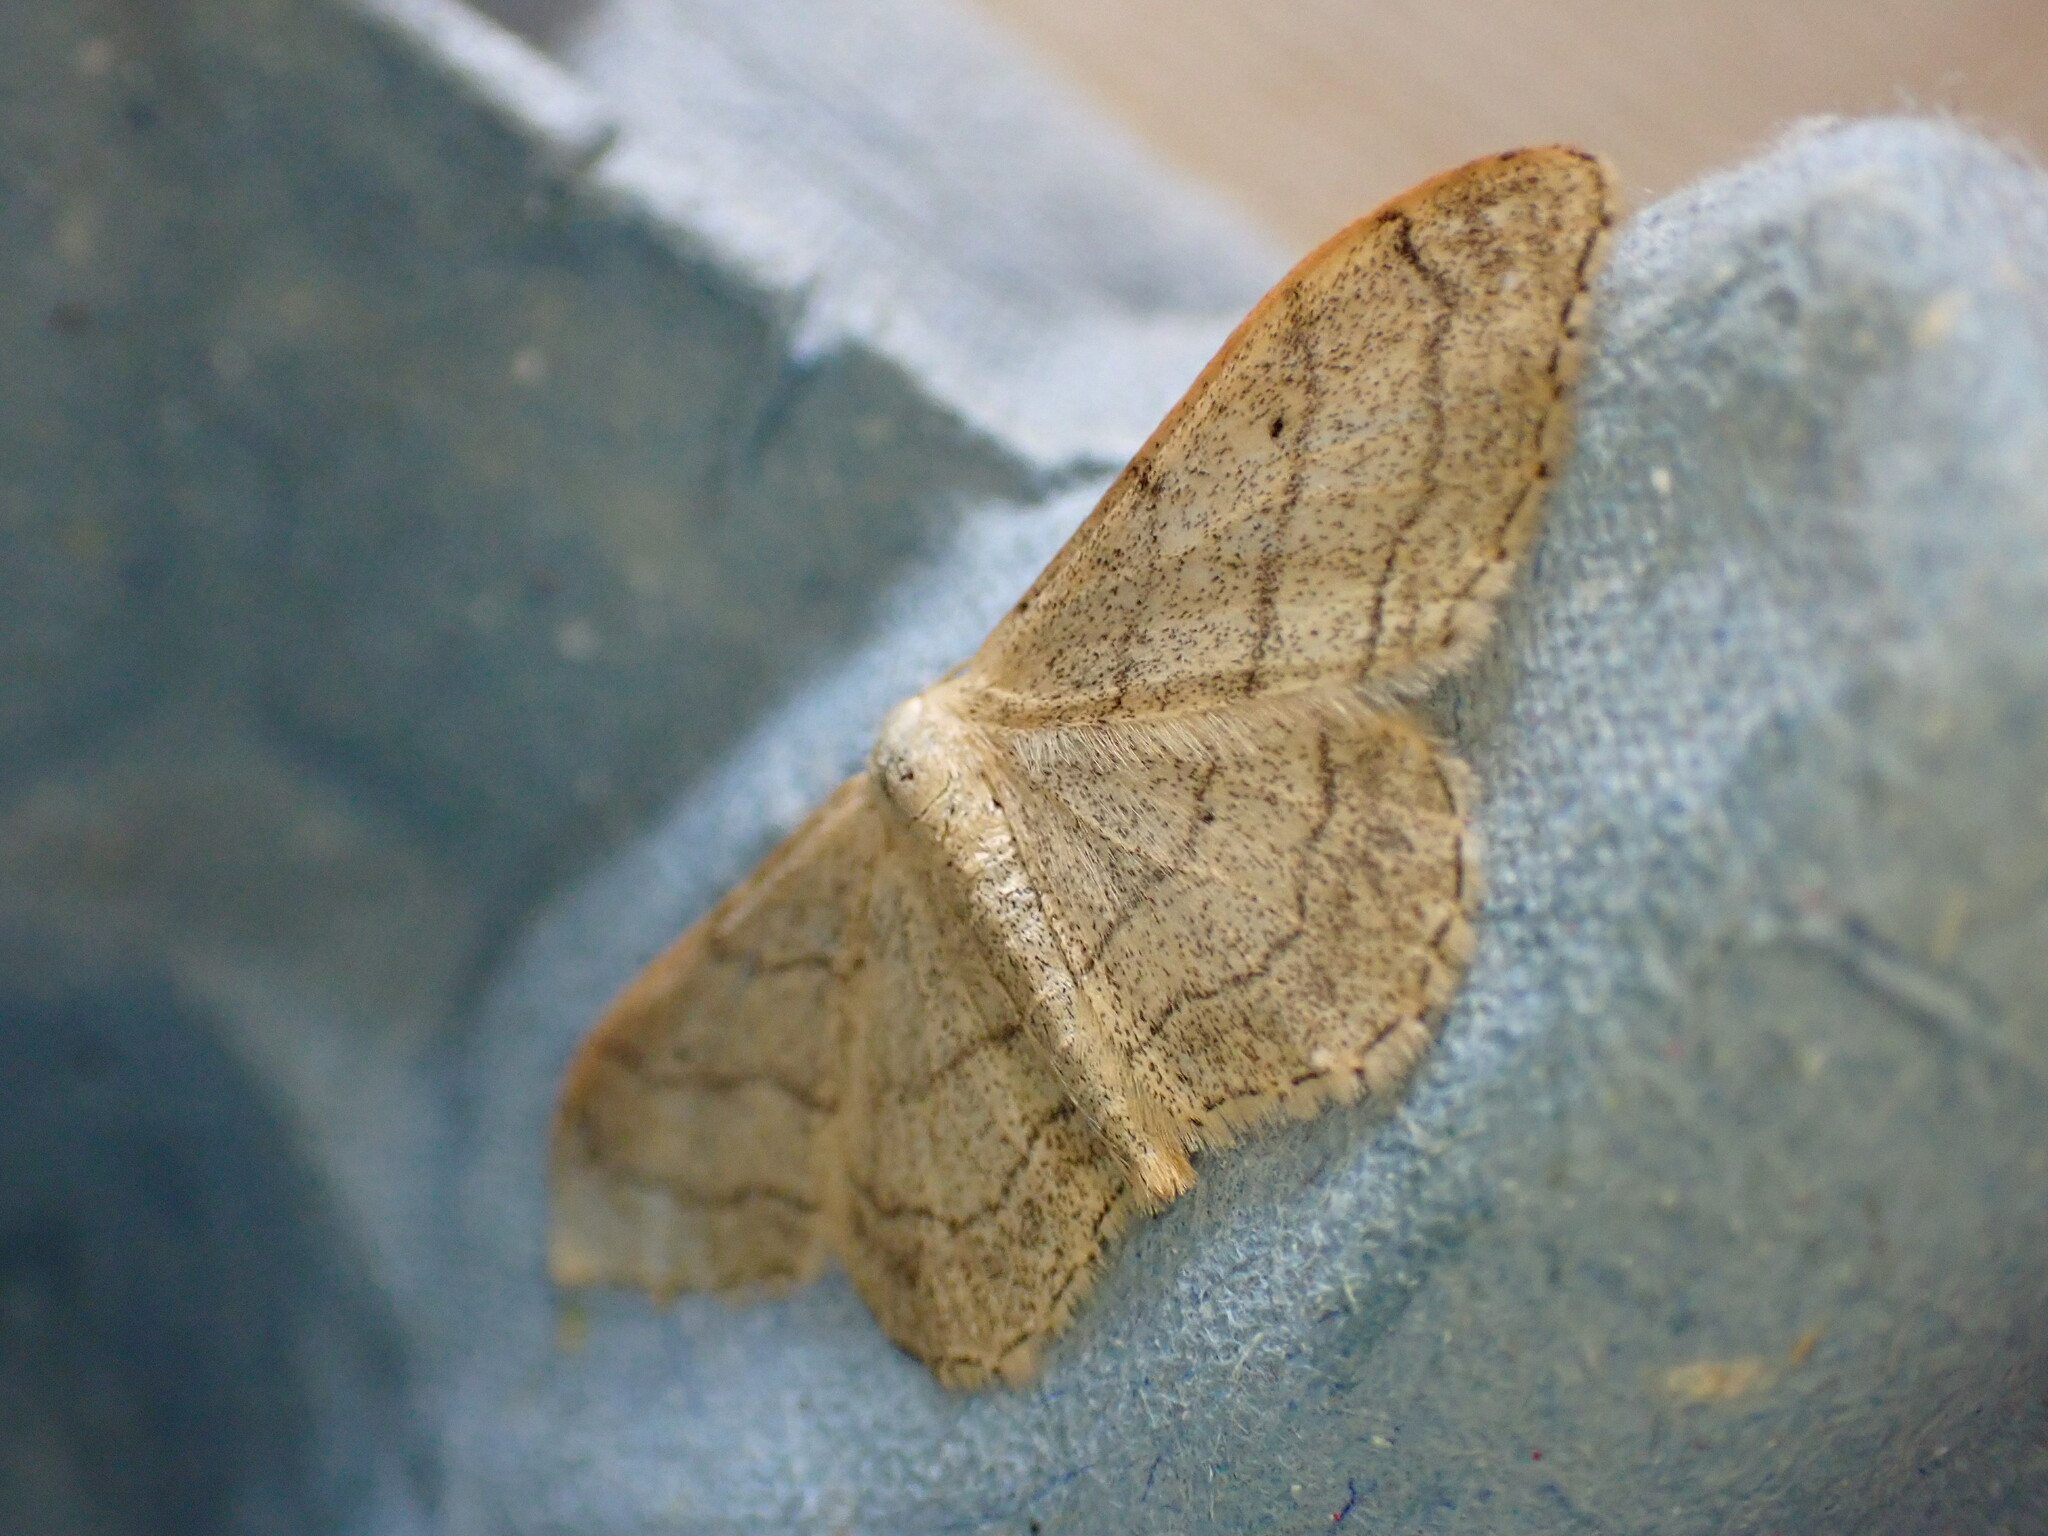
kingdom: Animalia
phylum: Arthropoda
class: Insecta
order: Lepidoptera
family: Geometridae
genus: Idaea
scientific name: Idaea aversata
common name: Riband wave
